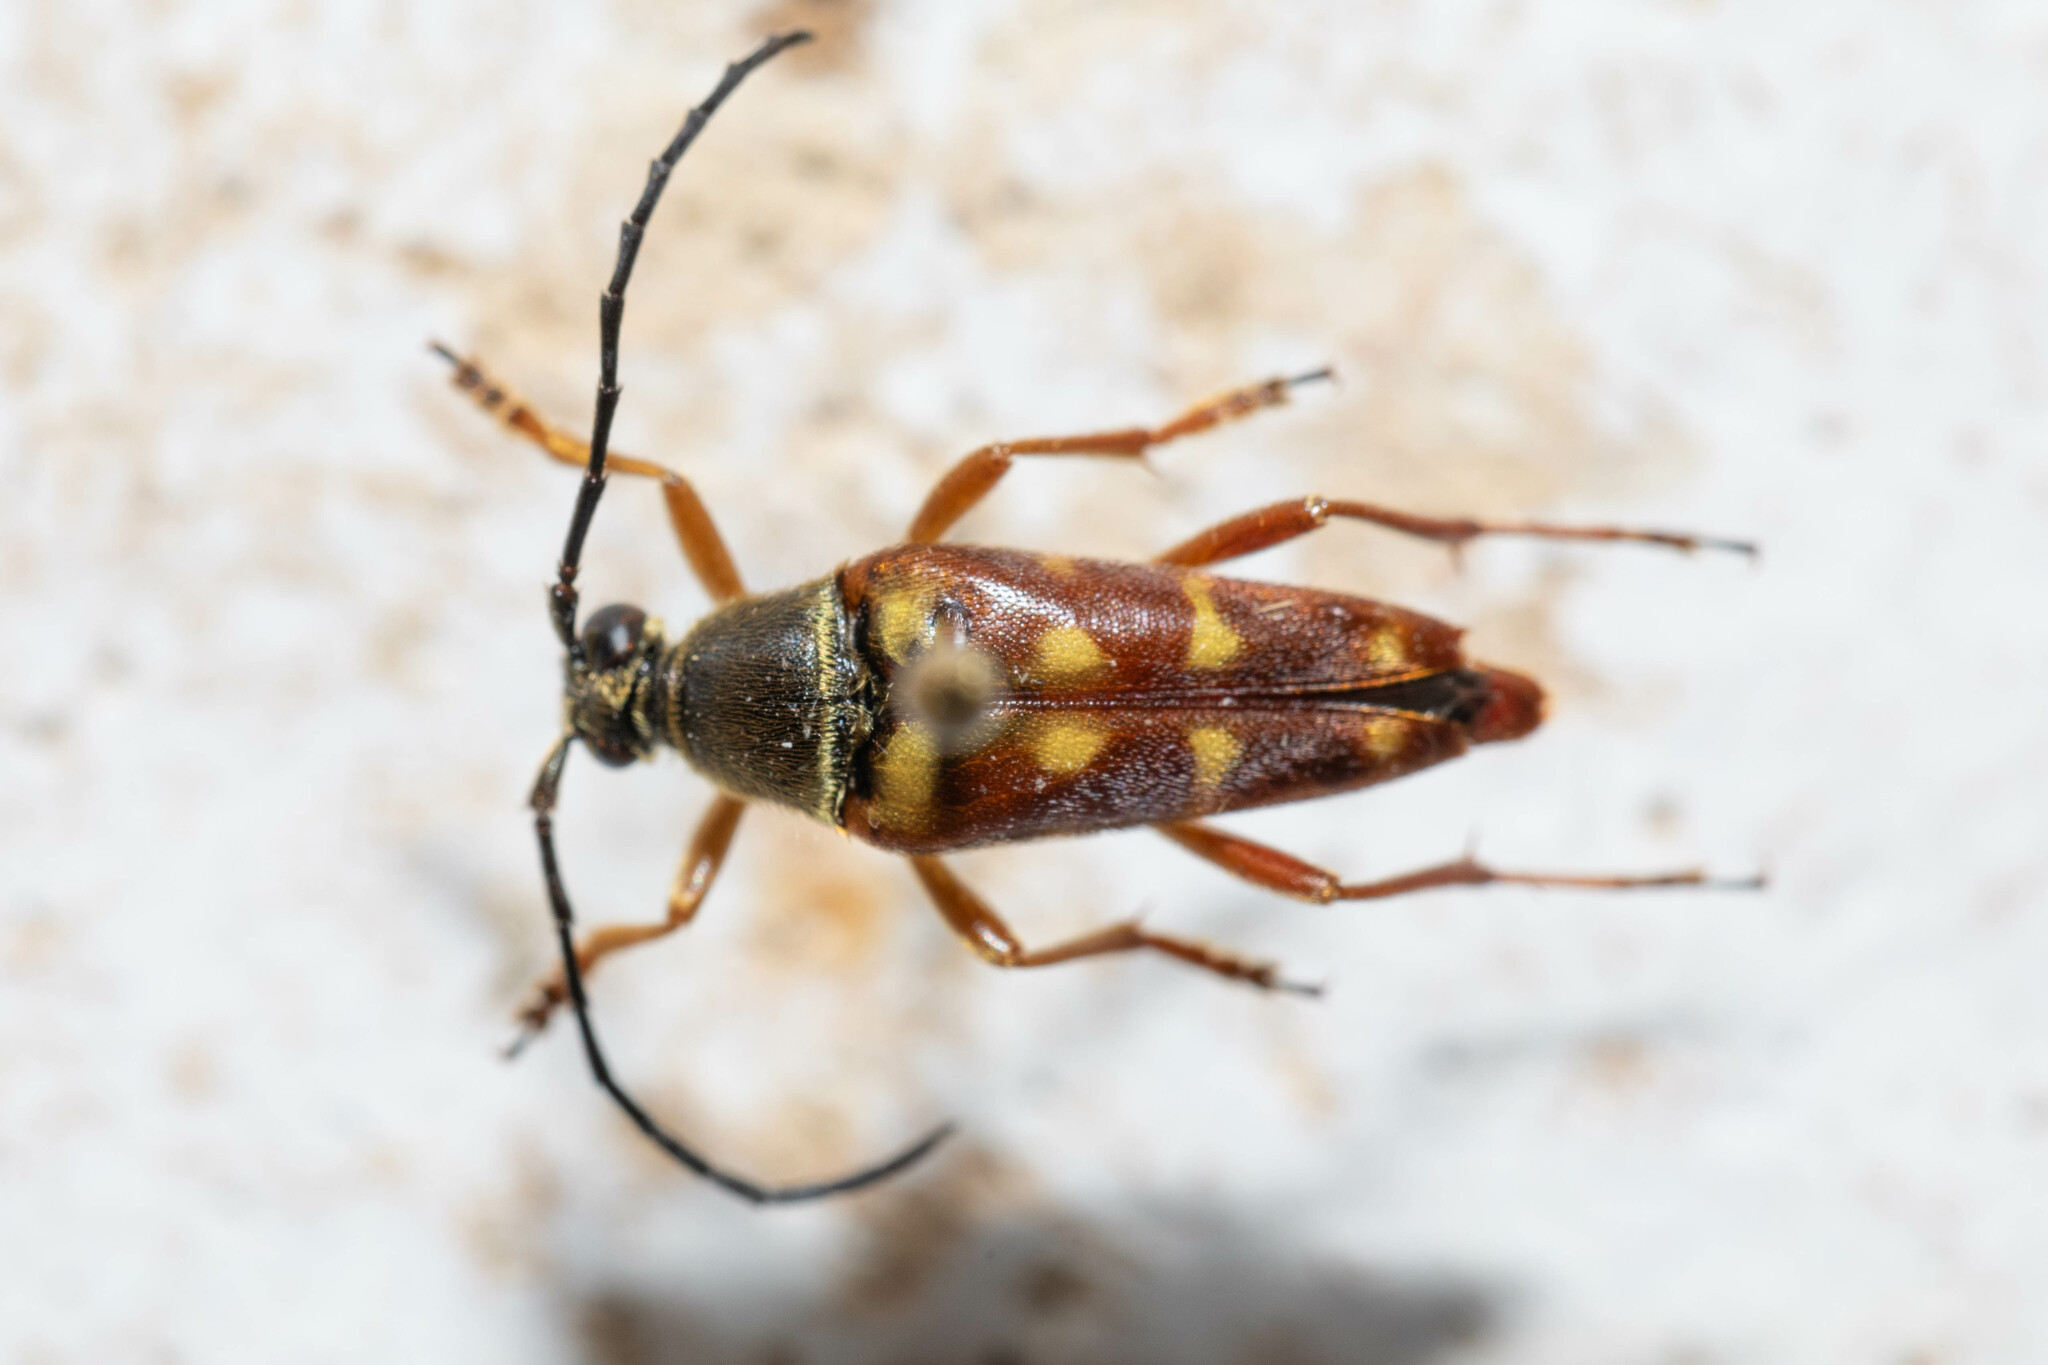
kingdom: Animalia
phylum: Arthropoda
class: Insecta
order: Coleoptera
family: Cerambycidae
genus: Typocerus
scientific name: Typocerus velutinus
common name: Banded longhorn beetle
